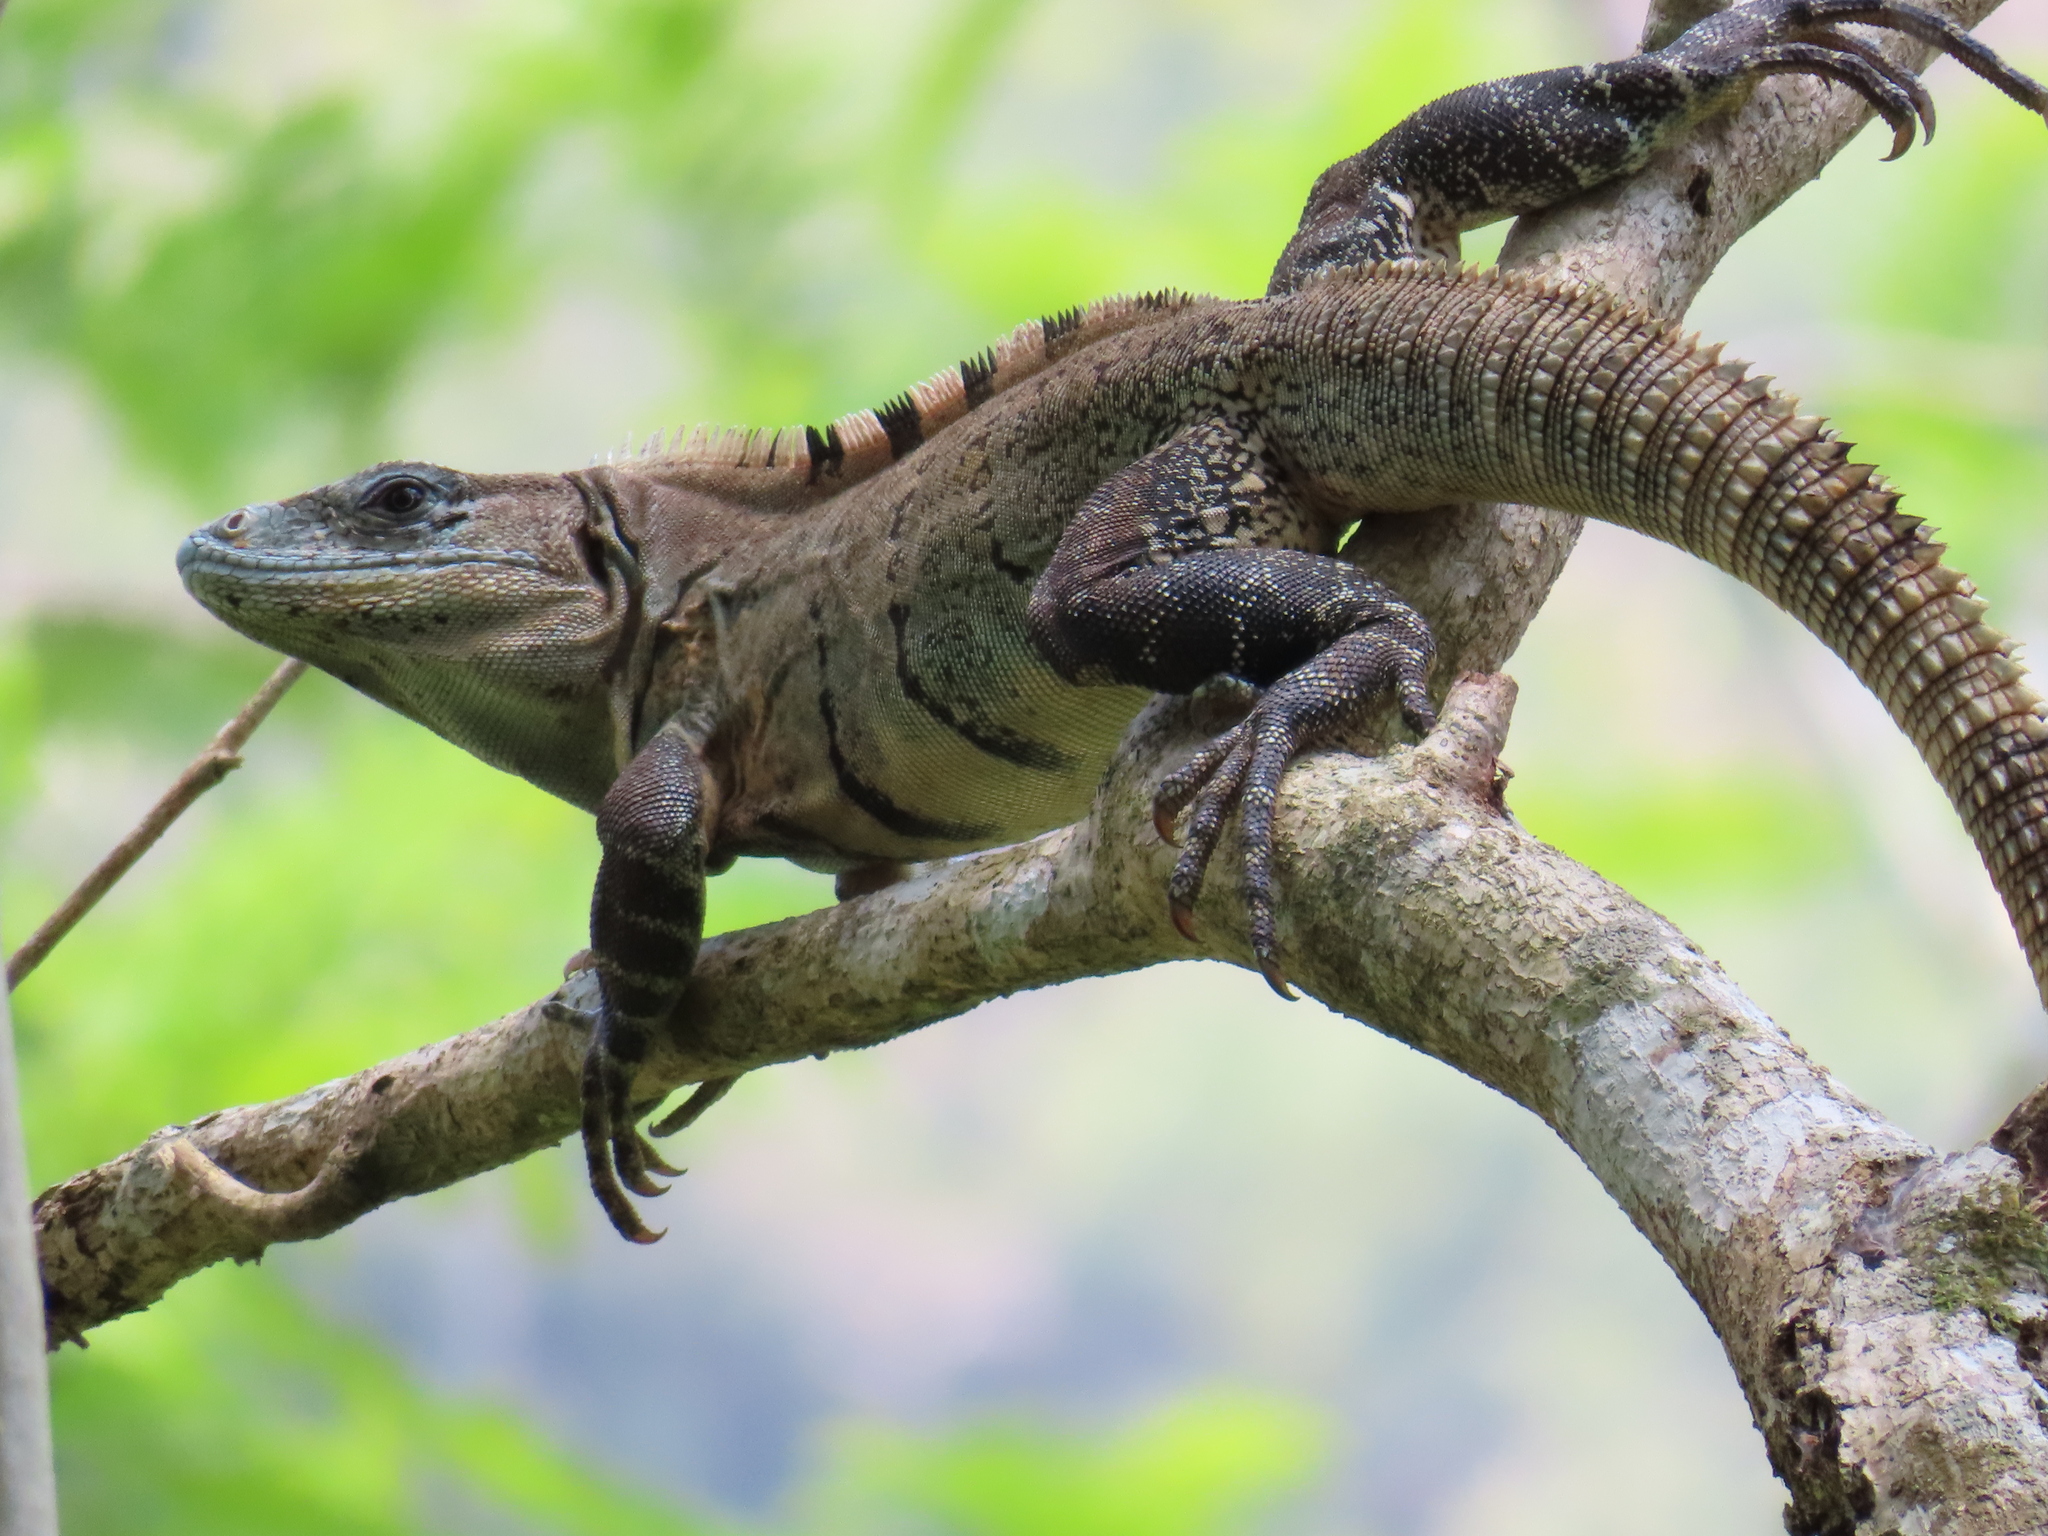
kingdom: Animalia
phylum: Chordata
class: Squamata
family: Iguanidae
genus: Ctenosaura
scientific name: Ctenosaura similis
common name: Black spiny-tailed iguana
